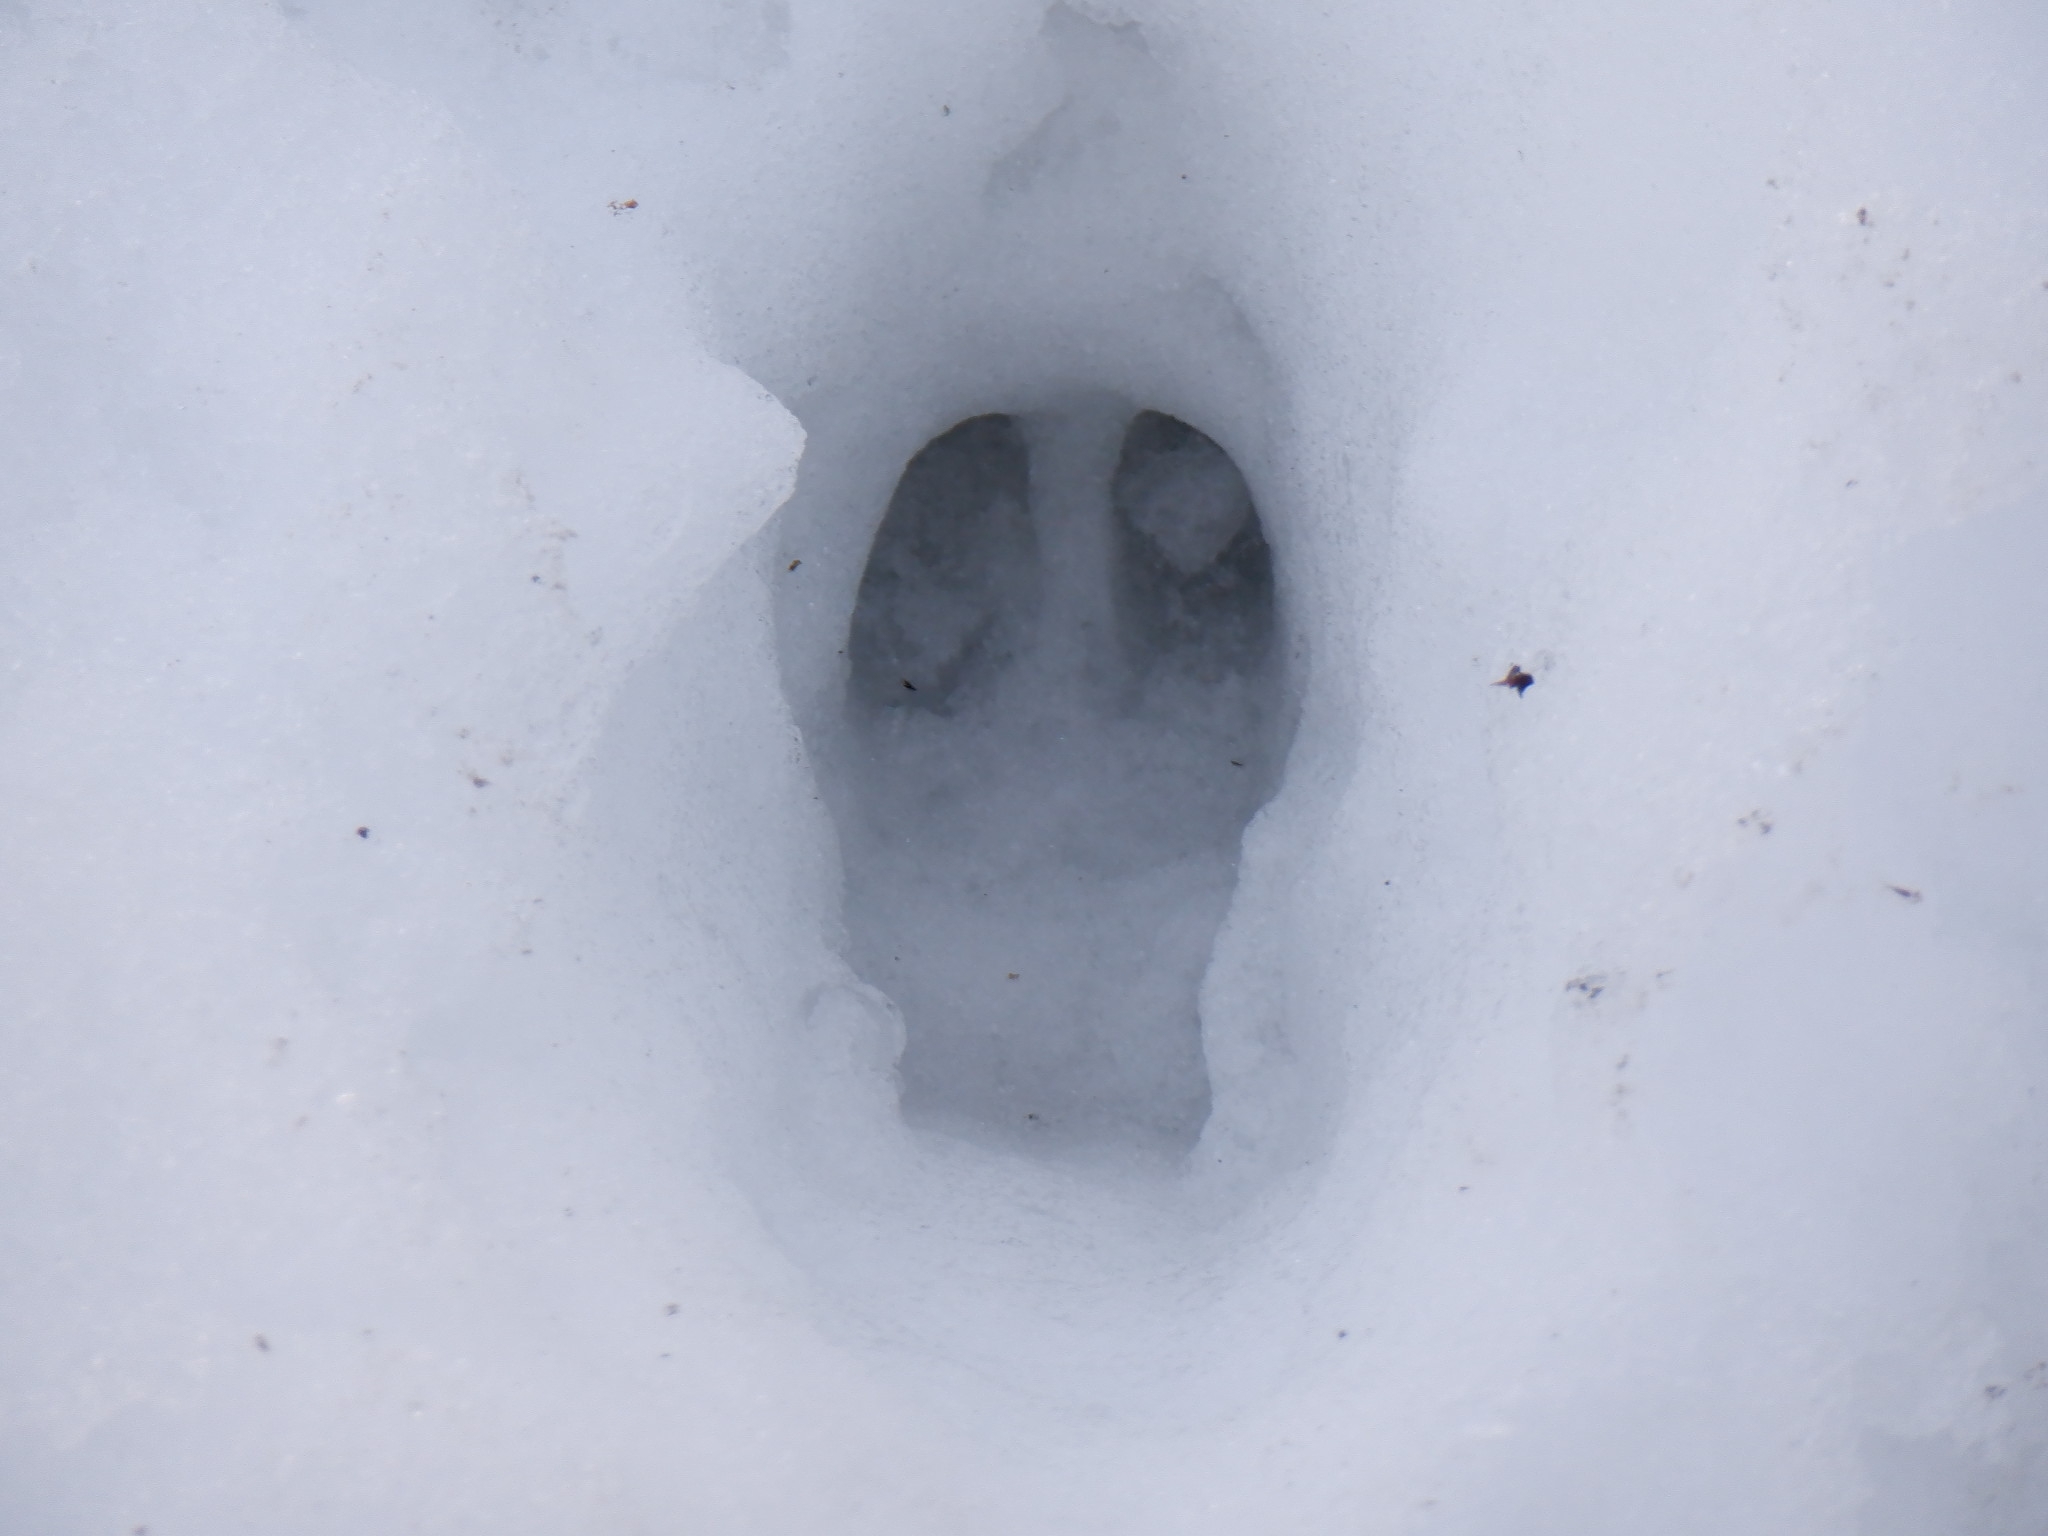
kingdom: Animalia
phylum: Chordata
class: Mammalia
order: Artiodactyla
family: Cervidae
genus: Odocoileus
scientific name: Odocoileus virginianus
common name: White-tailed deer
